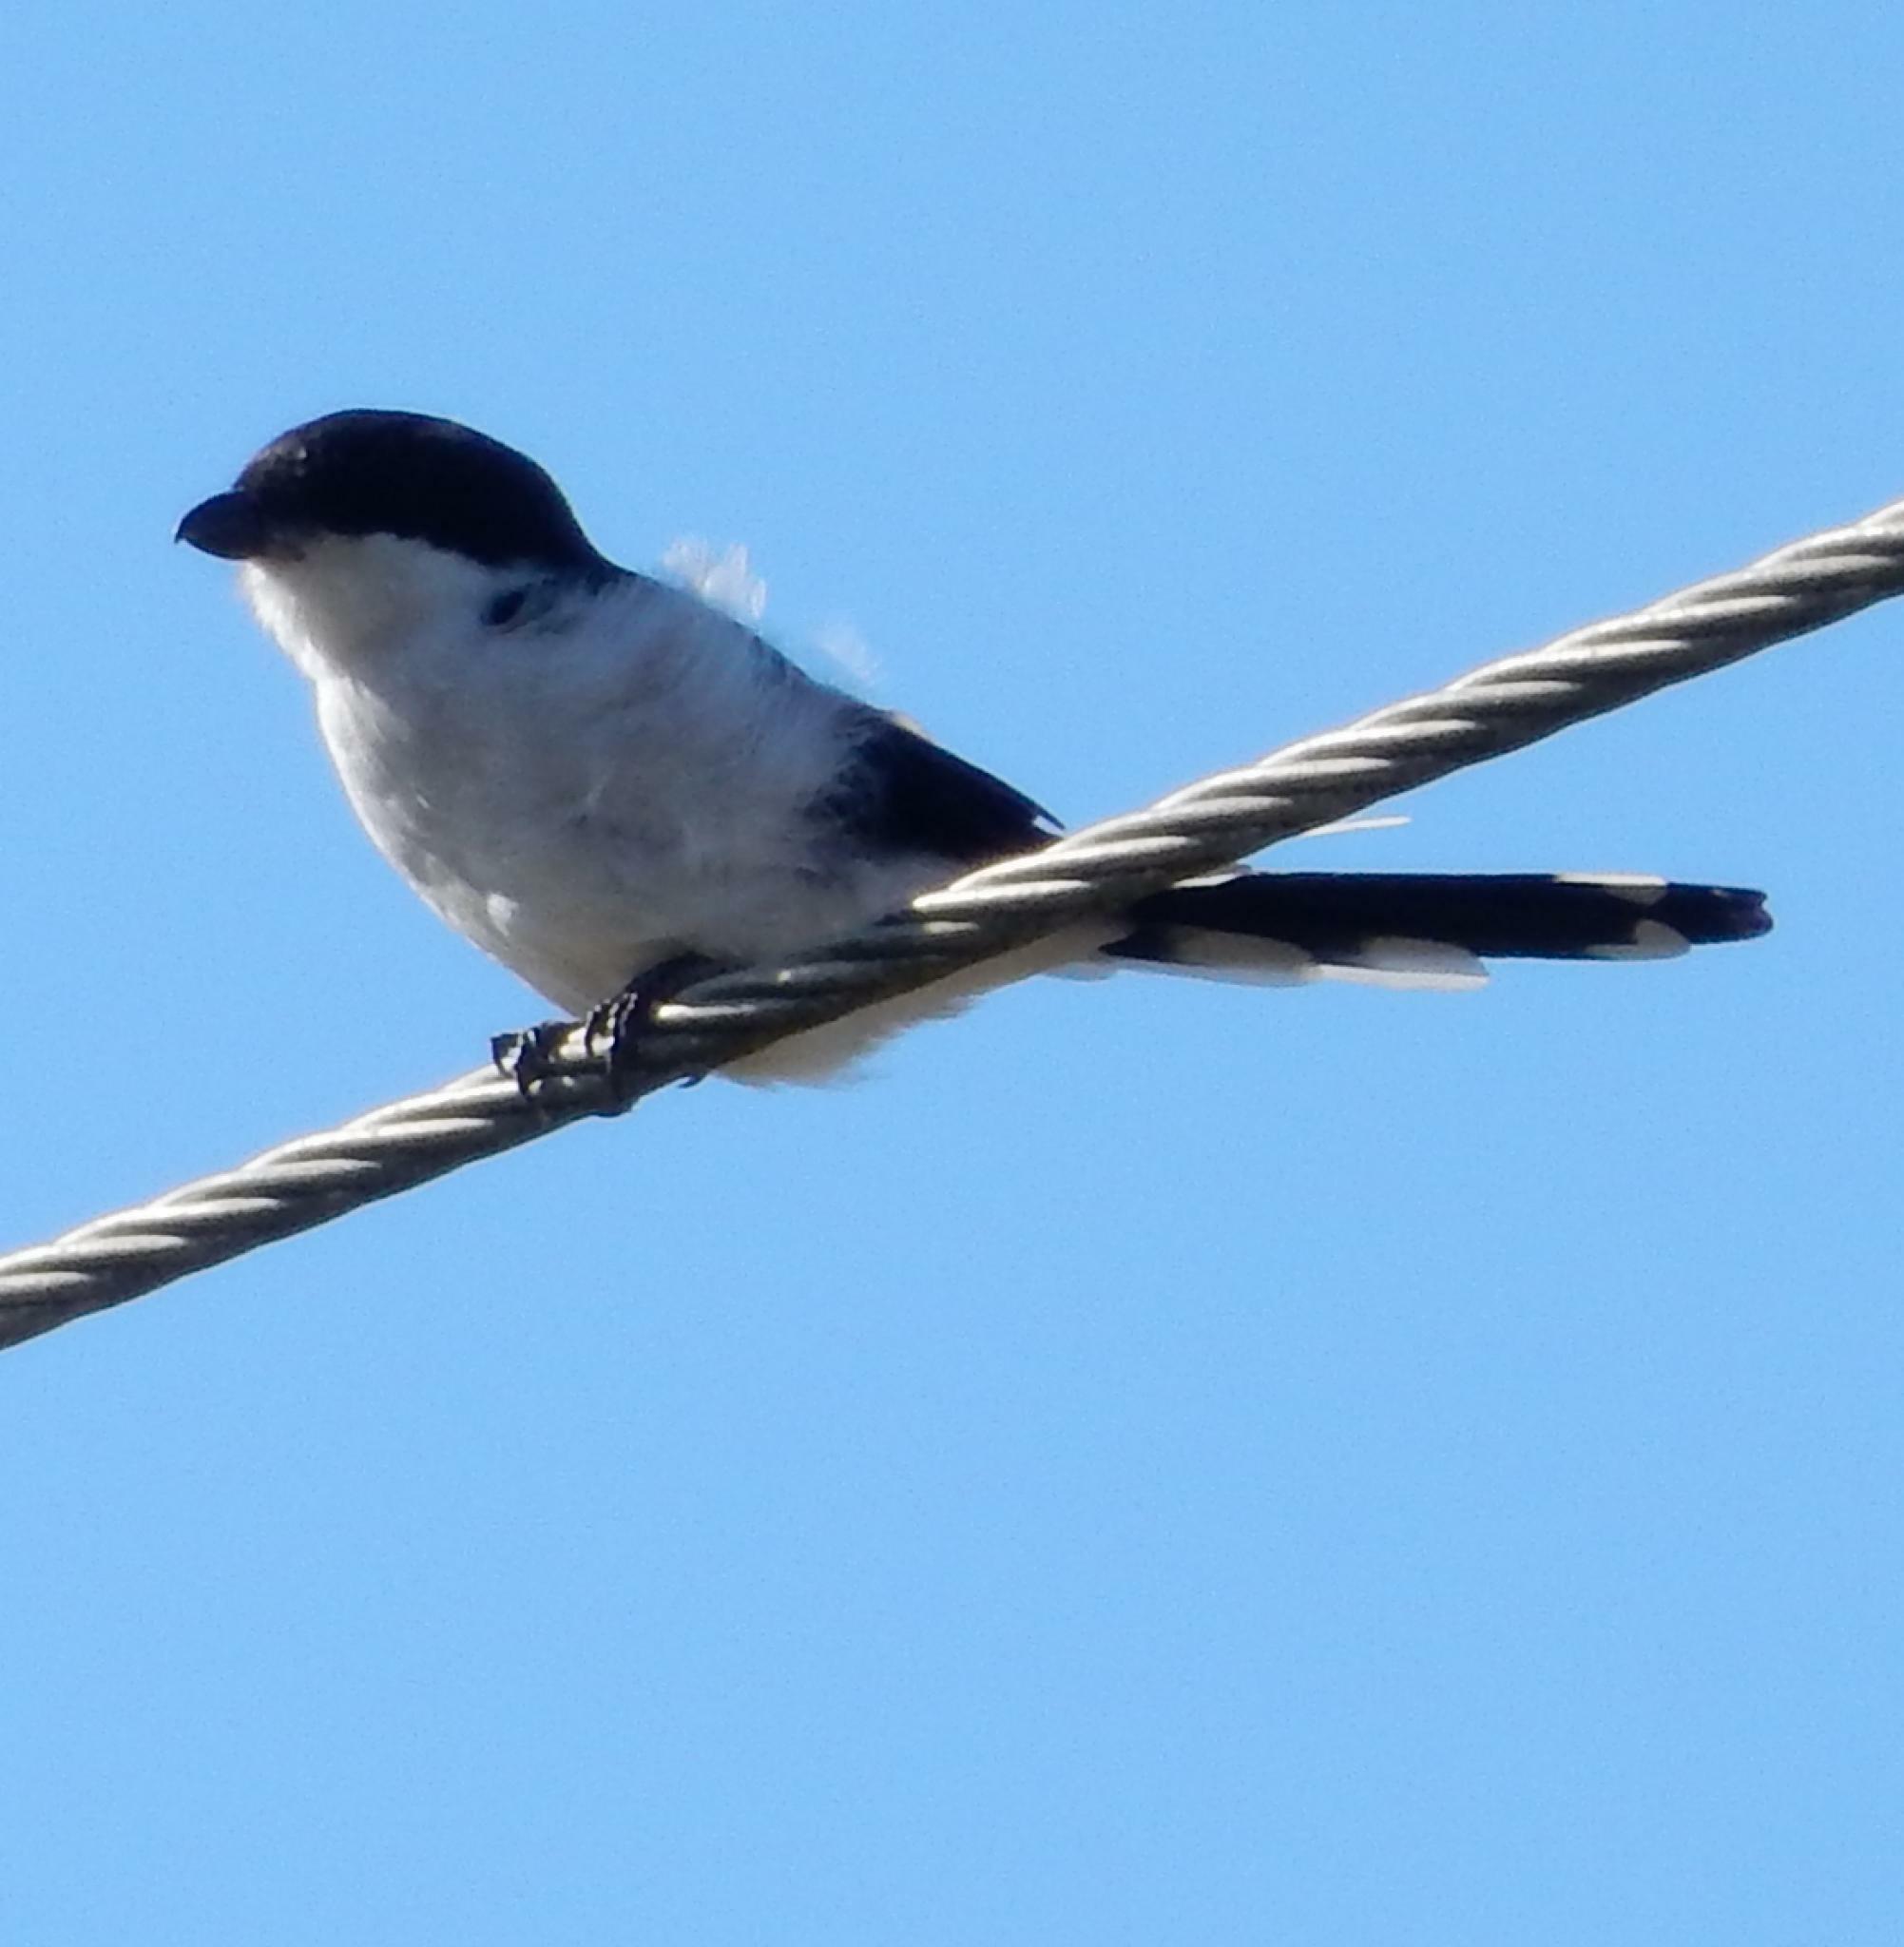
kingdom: Animalia
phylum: Chordata
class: Aves
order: Passeriformes
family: Laniidae
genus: Lanius
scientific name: Lanius collaris
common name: Southern fiscal
